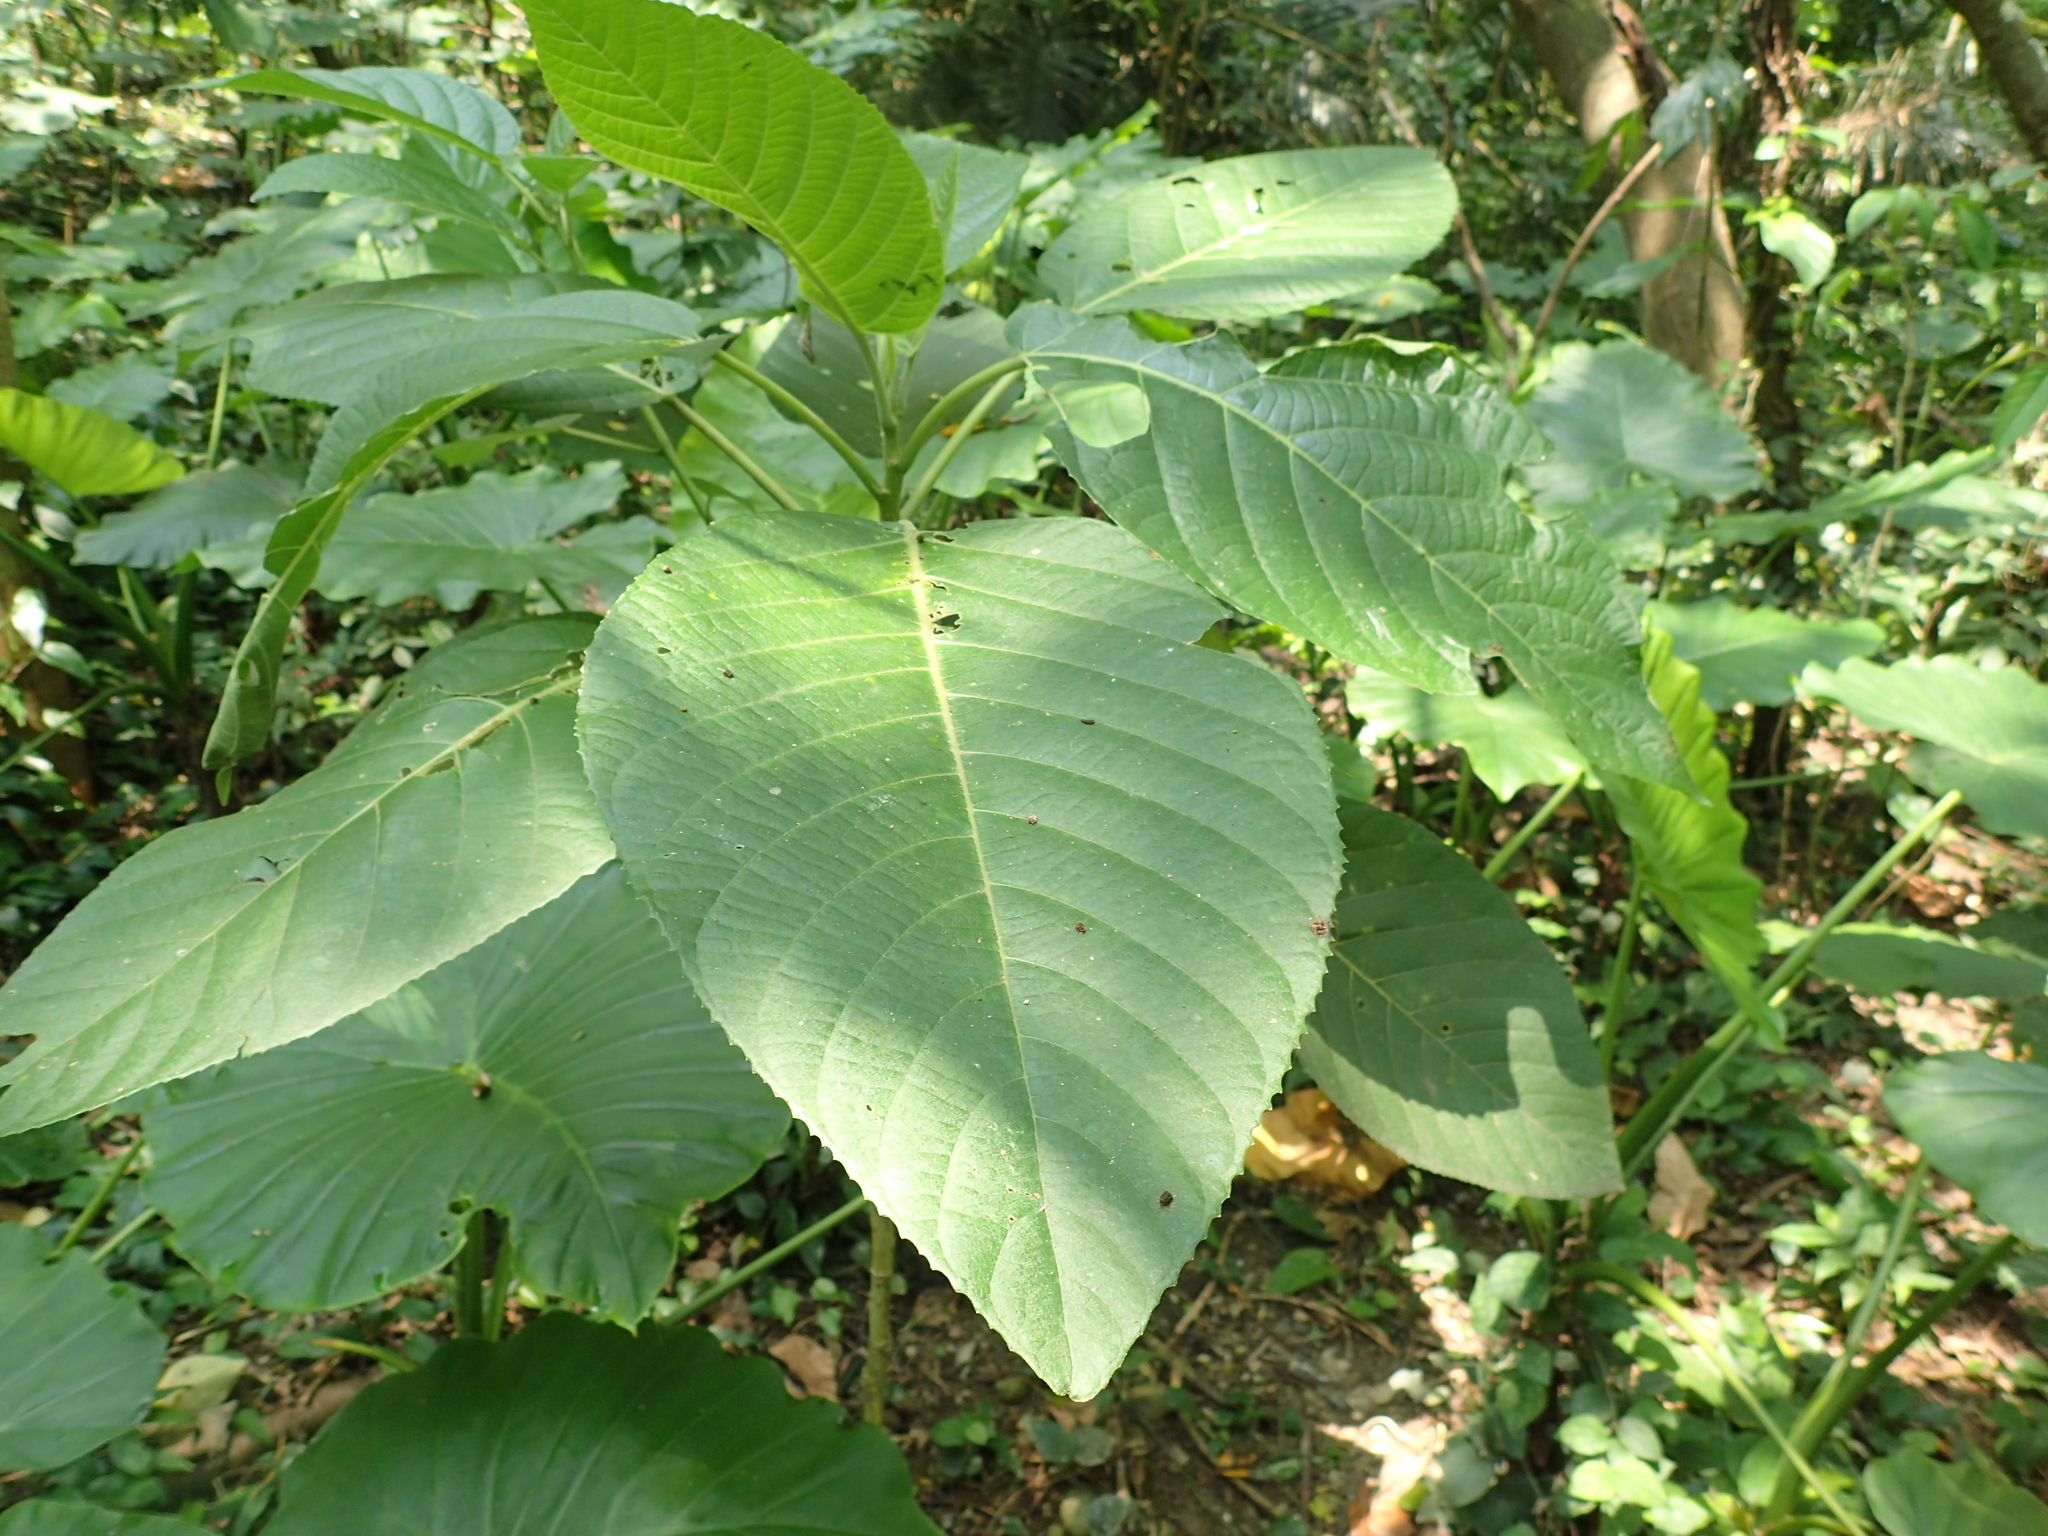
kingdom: Plantae
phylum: Tracheophyta
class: Magnoliopsida
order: Rosales
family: Urticaceae
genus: Dendrocnide
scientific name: Dendrocnide meyeniana
